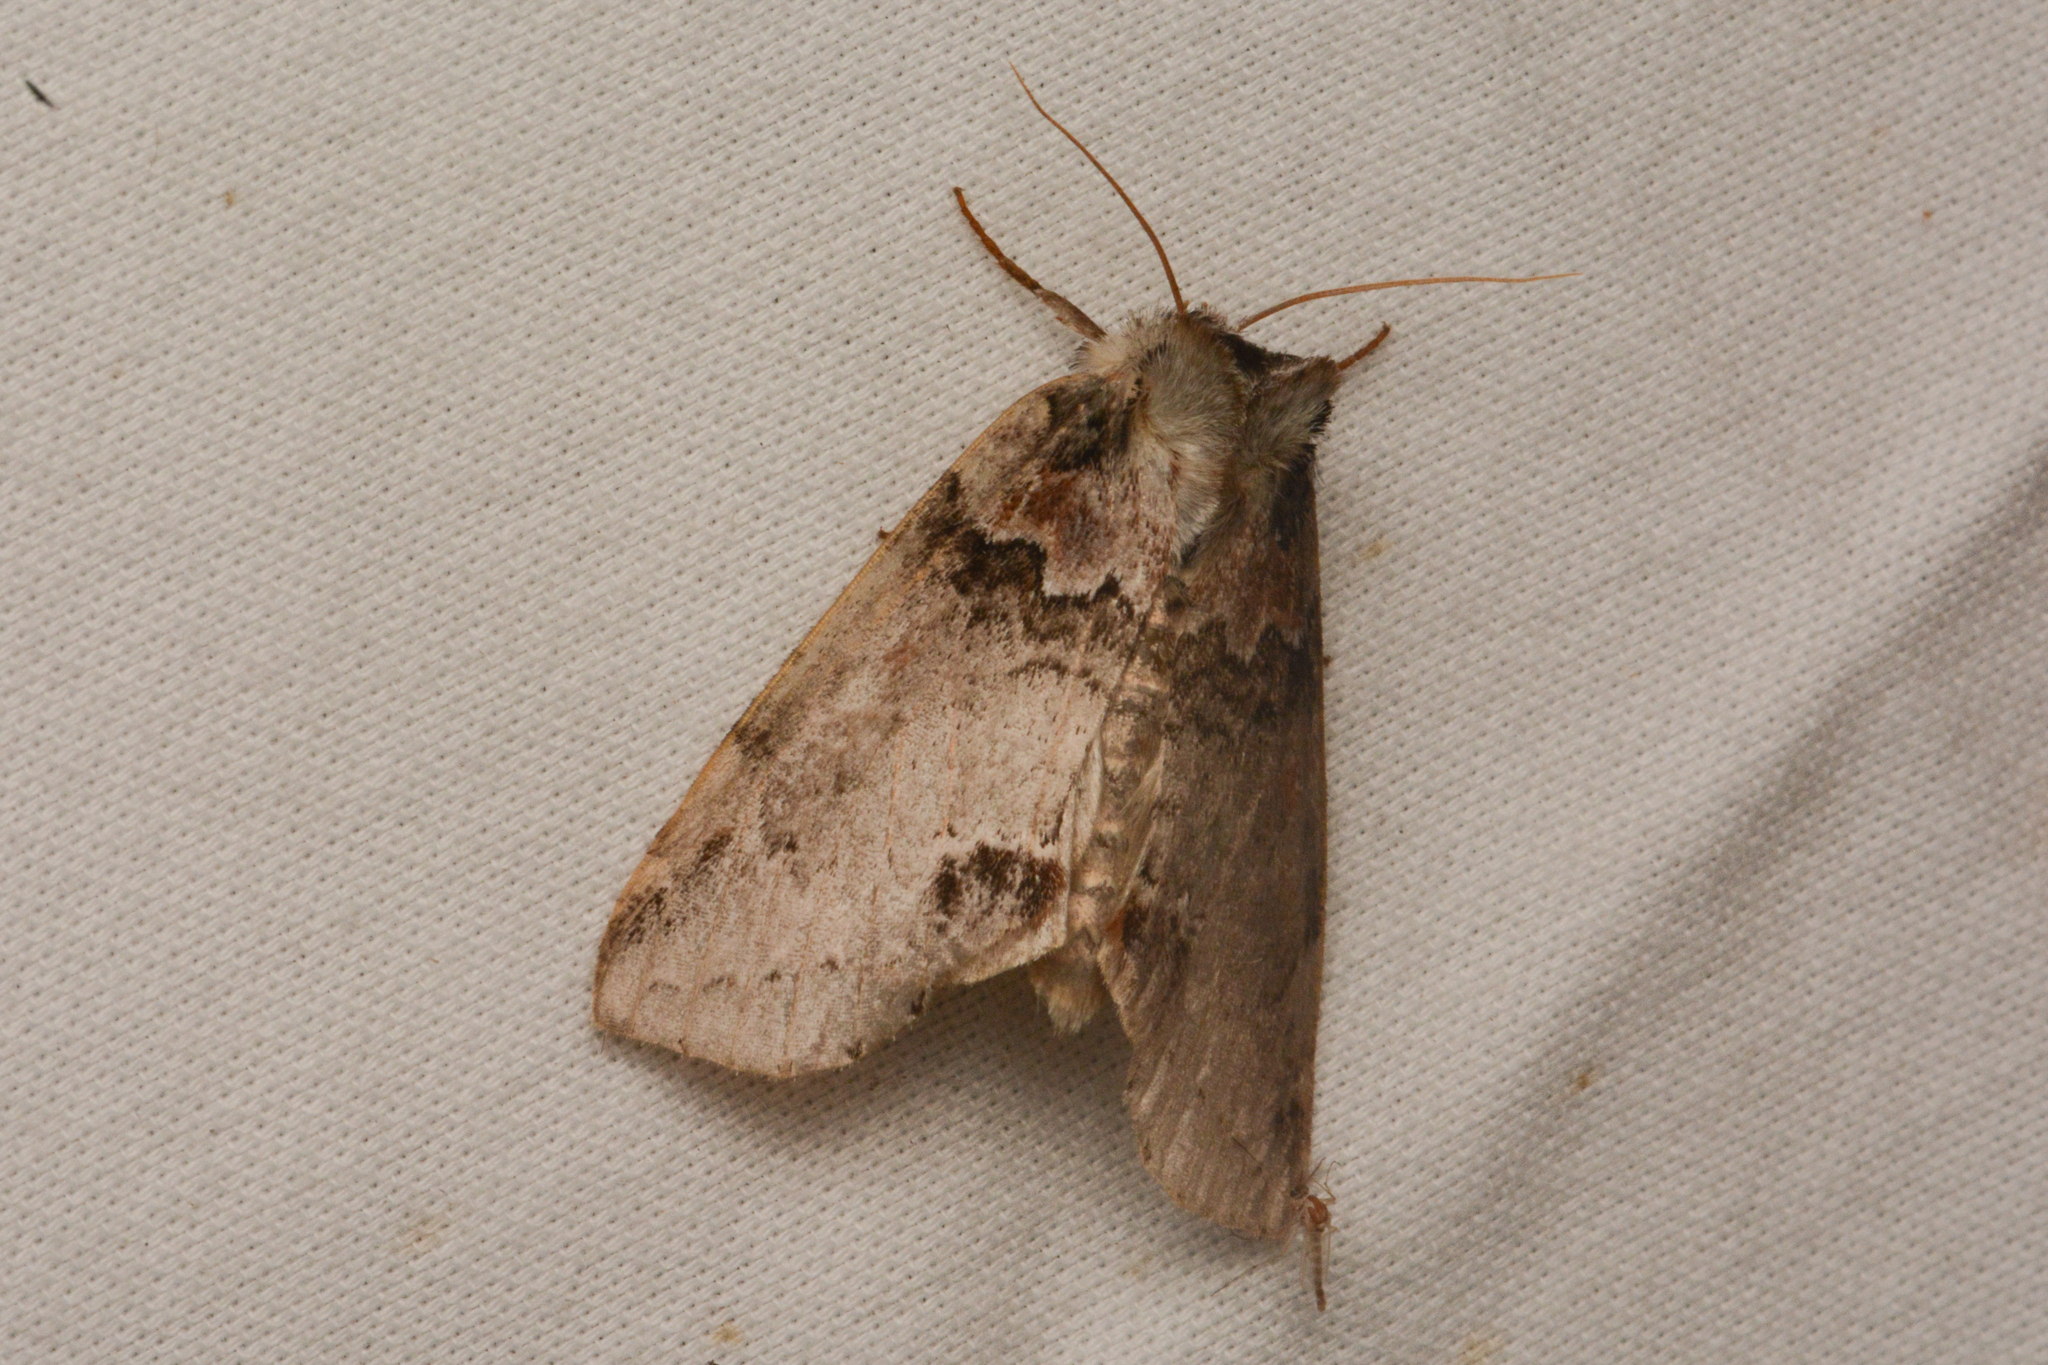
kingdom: Animalia
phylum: Arthropoda
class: Insecta
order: Lepidoptera
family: Drepanidae
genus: Pseudothyatira
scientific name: Pseudothyatira cymatophoroides
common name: Tufted thyatirid moth
